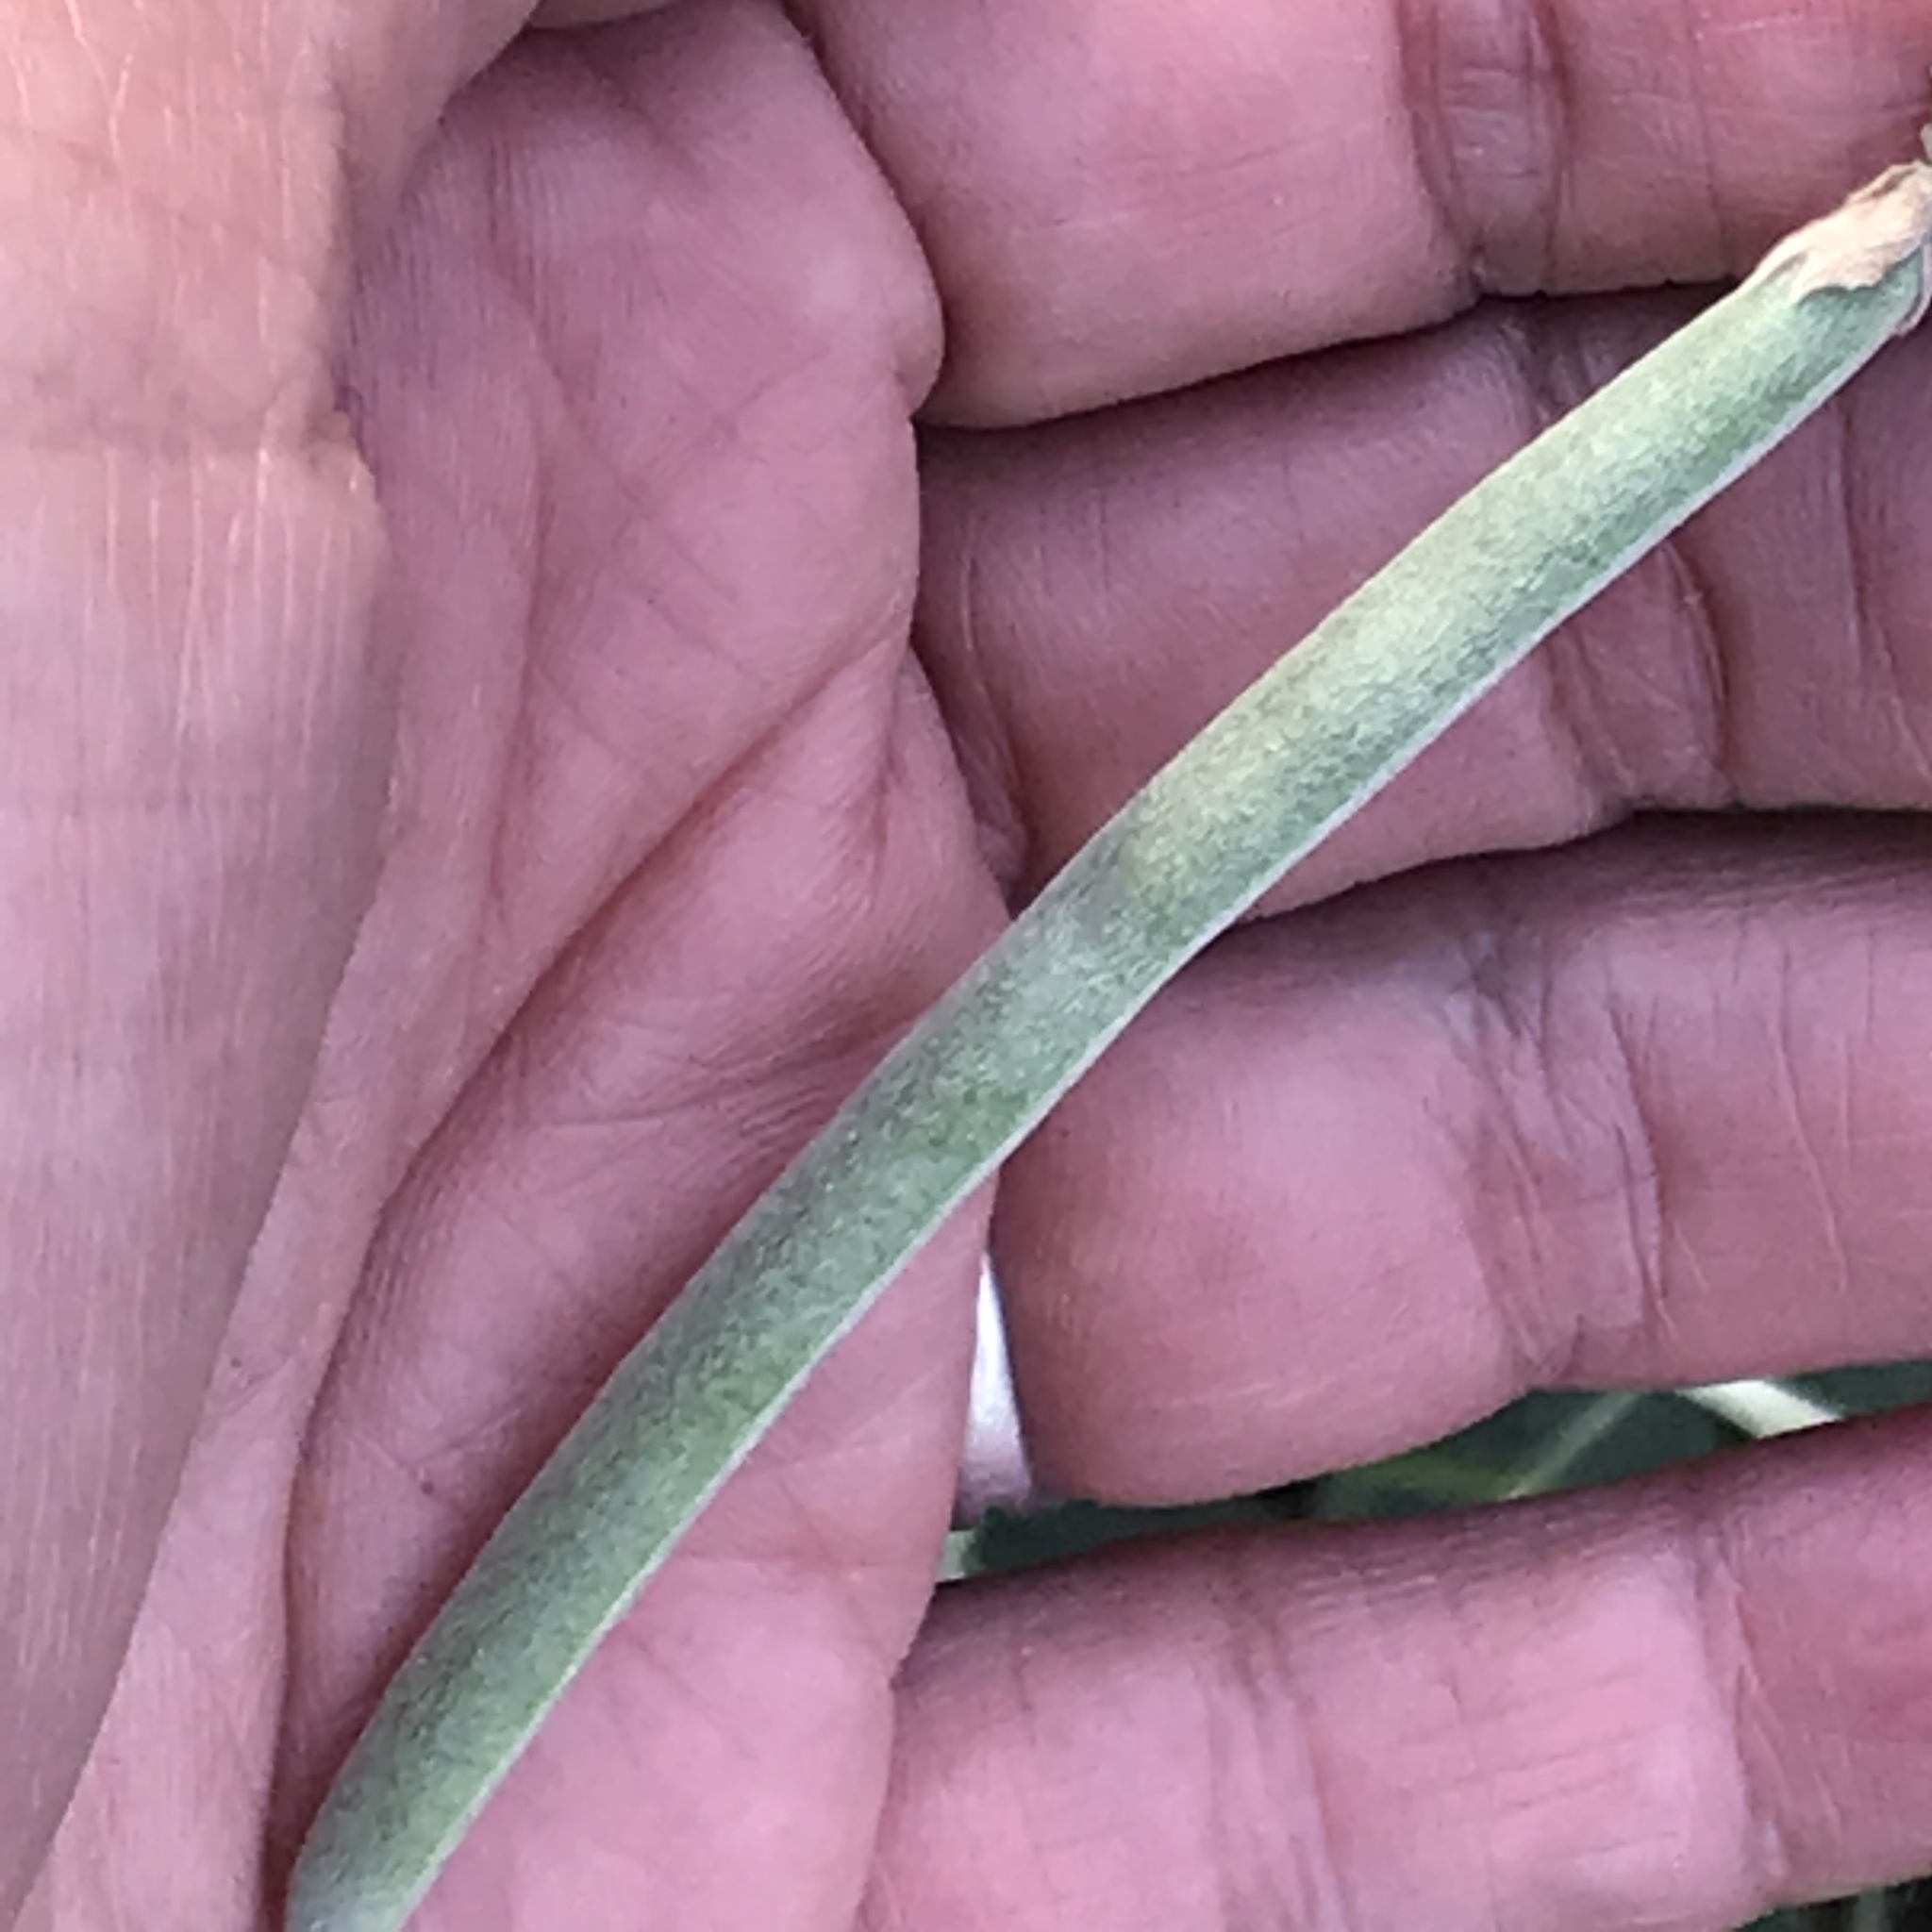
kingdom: Plantae
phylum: Tracheophyta
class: Magnoliopsida
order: Fabales
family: Fabaceae
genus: Macroptilium
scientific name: Macroptilium atropurpureum
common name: Purple bushbean
